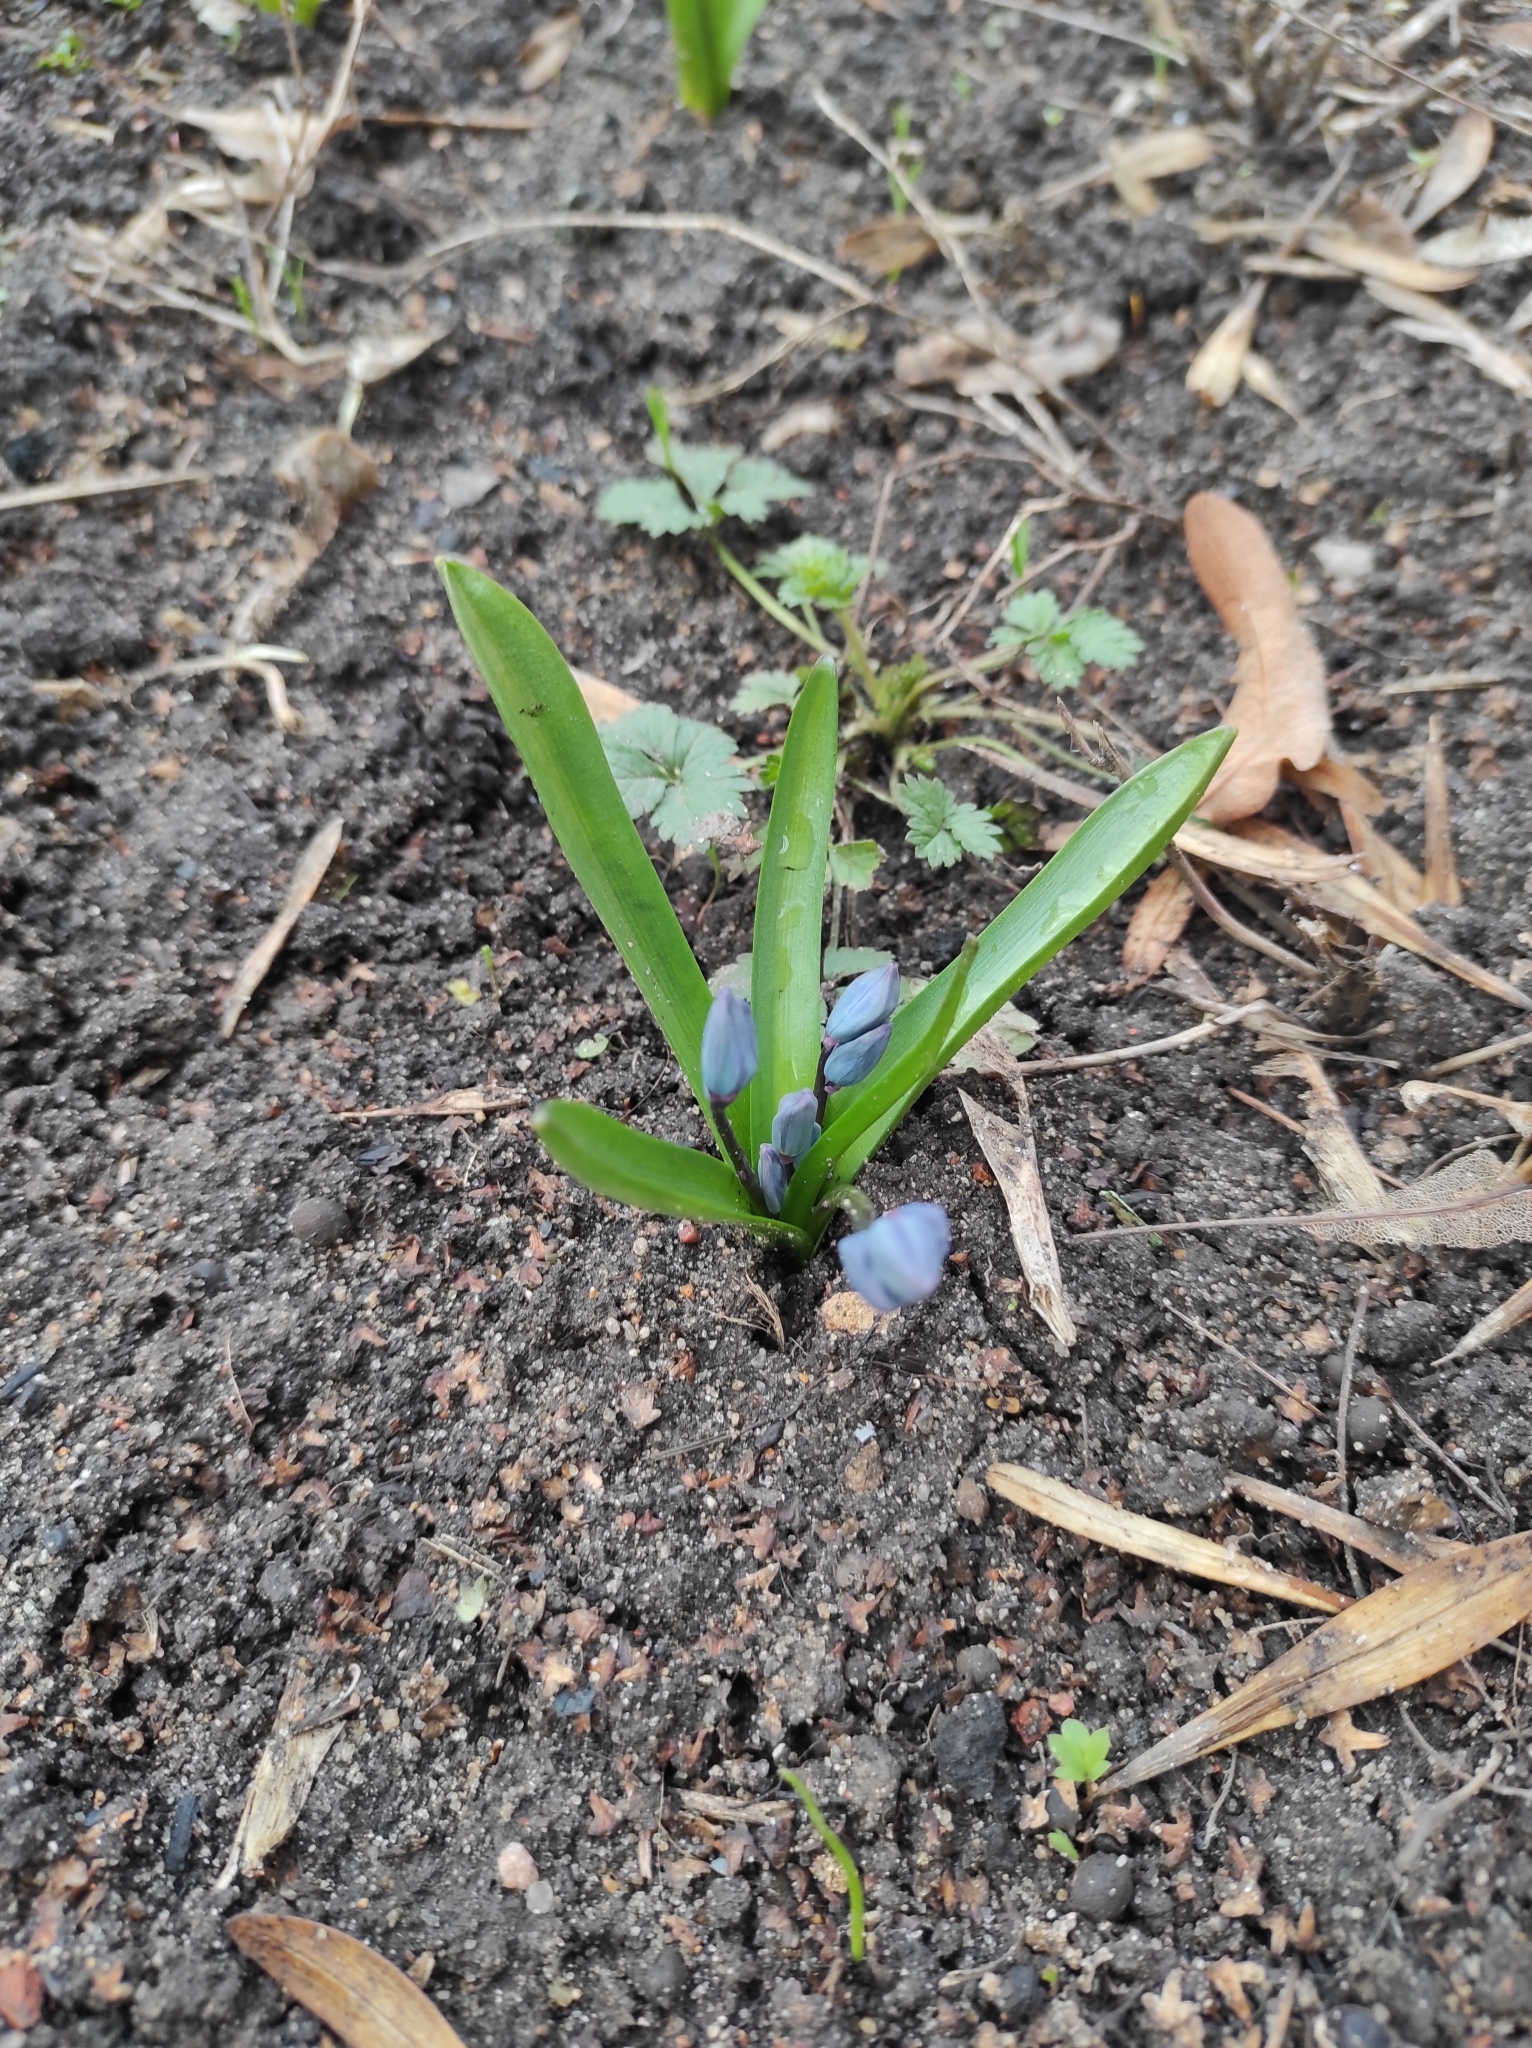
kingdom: Plantae
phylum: Tracheophyta
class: Liliopsida
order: Asparagales
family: Asparagaceae
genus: Scilla
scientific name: Scilla siberica
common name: Siberian squill
